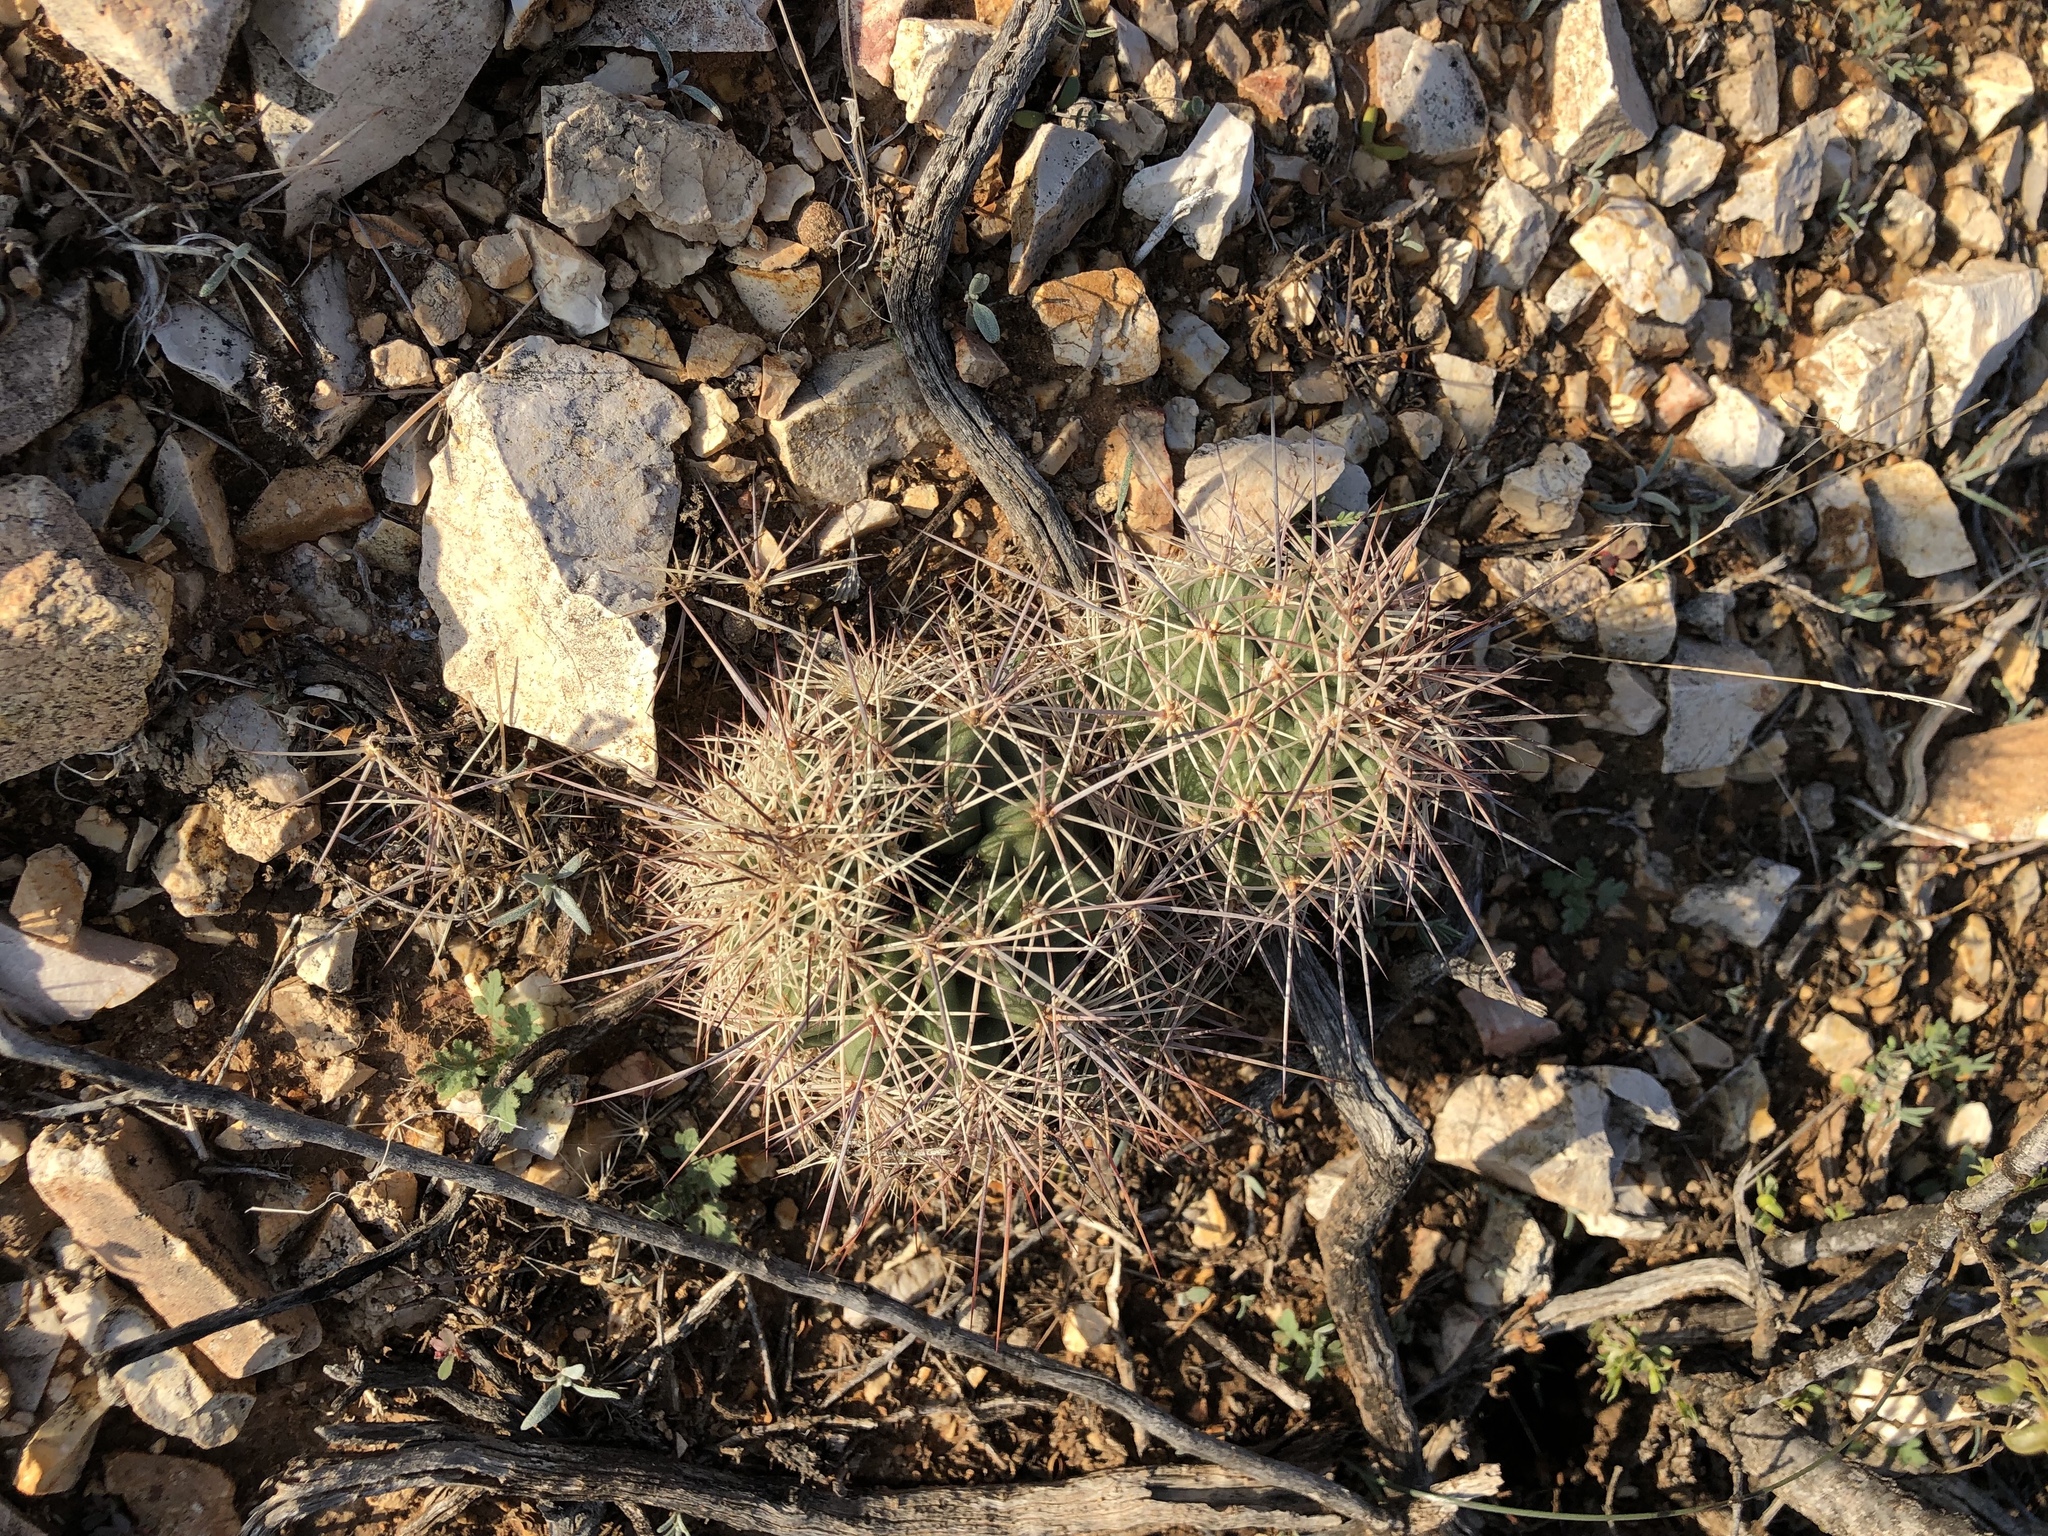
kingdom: Plantae
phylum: Tracheophyta
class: Magnoliopsida
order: Caryophyllales
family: Cactaceae
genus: Echinocereus
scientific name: Echinocereus coccineus
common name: Scarlet hedgehog cactus
